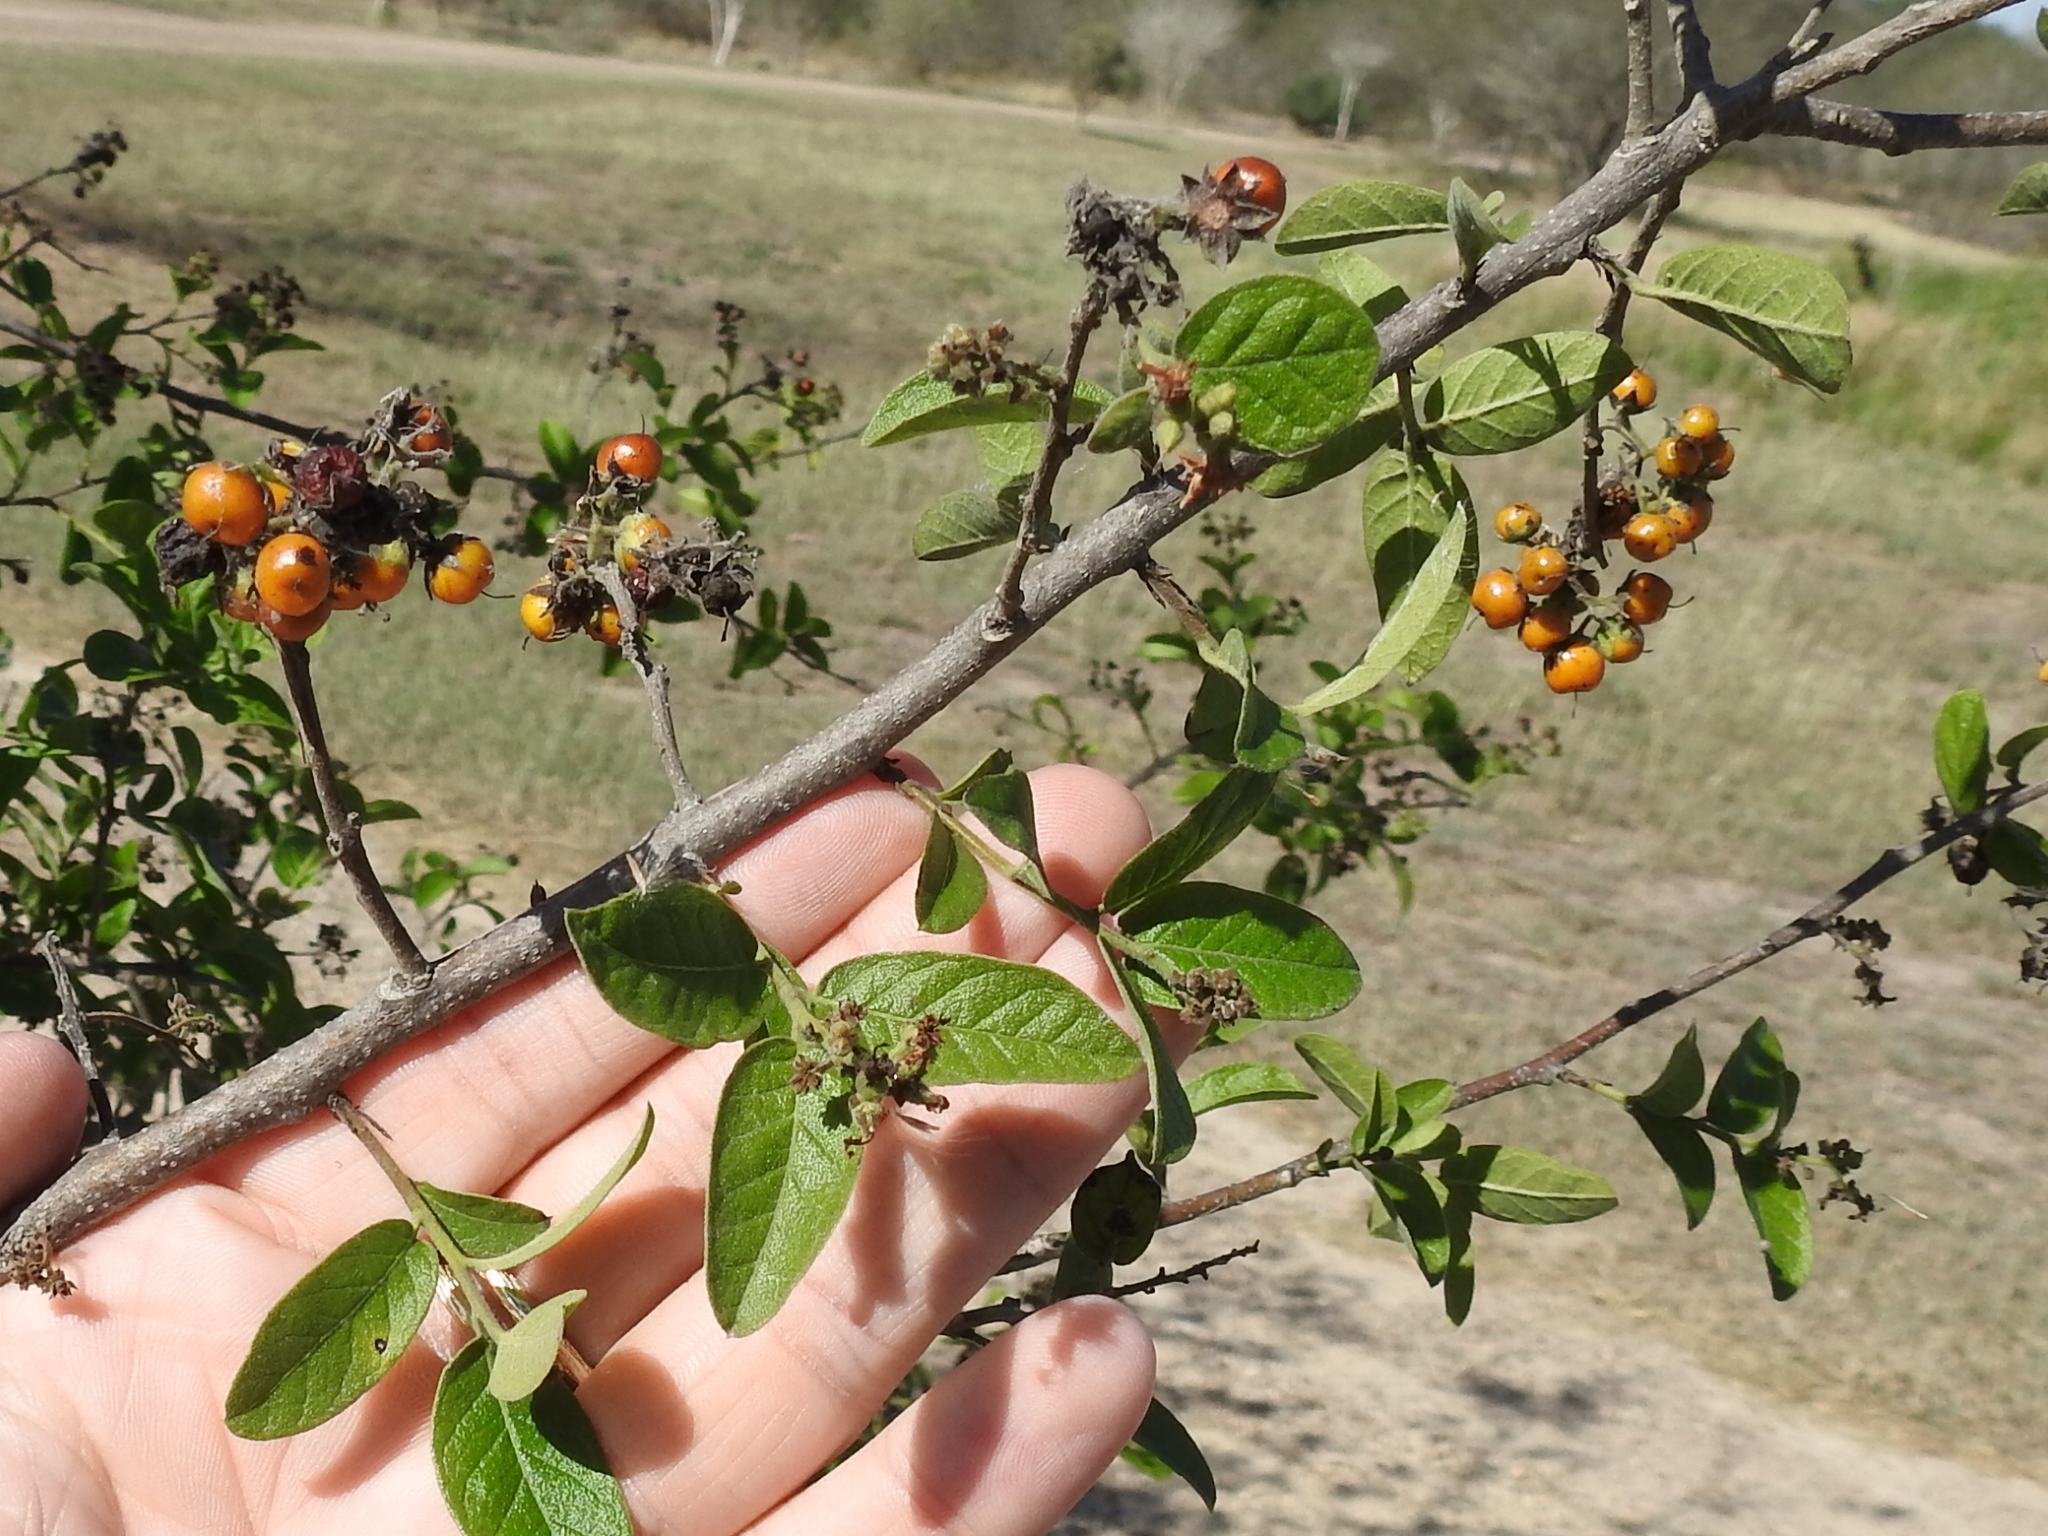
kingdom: Plantae
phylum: Tracheophyta
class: Magnoliopsida
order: Boraginales
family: Ehretiaceae
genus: Ehretia
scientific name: Ehretia anacua
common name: Sugarberry
